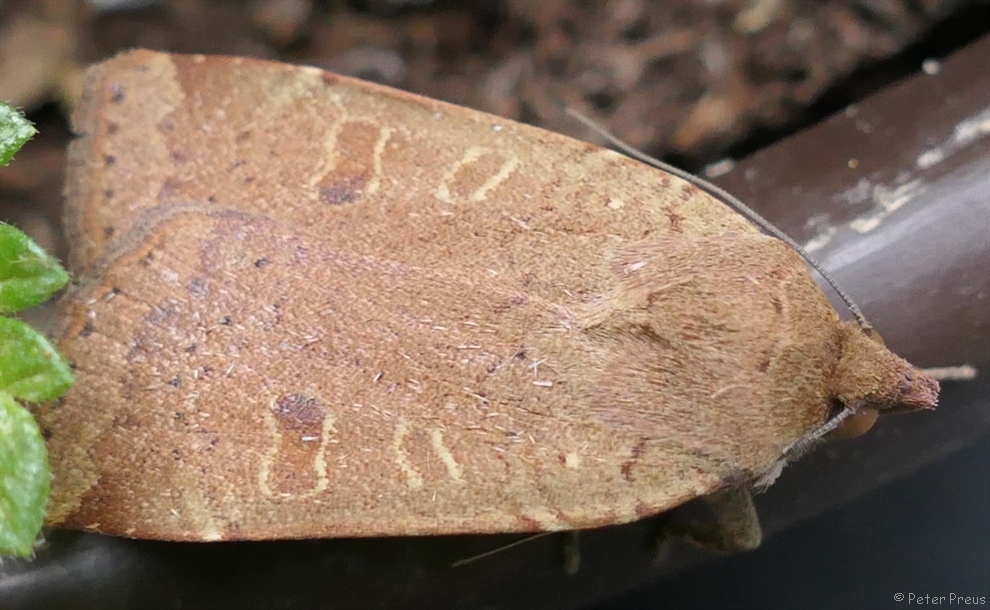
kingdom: Animalia
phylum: Arthropoda
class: Insecta
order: Lepidoptera
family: Noctuidae
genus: Noctua
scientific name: Noctua comes
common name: Lesser yellow underwing
